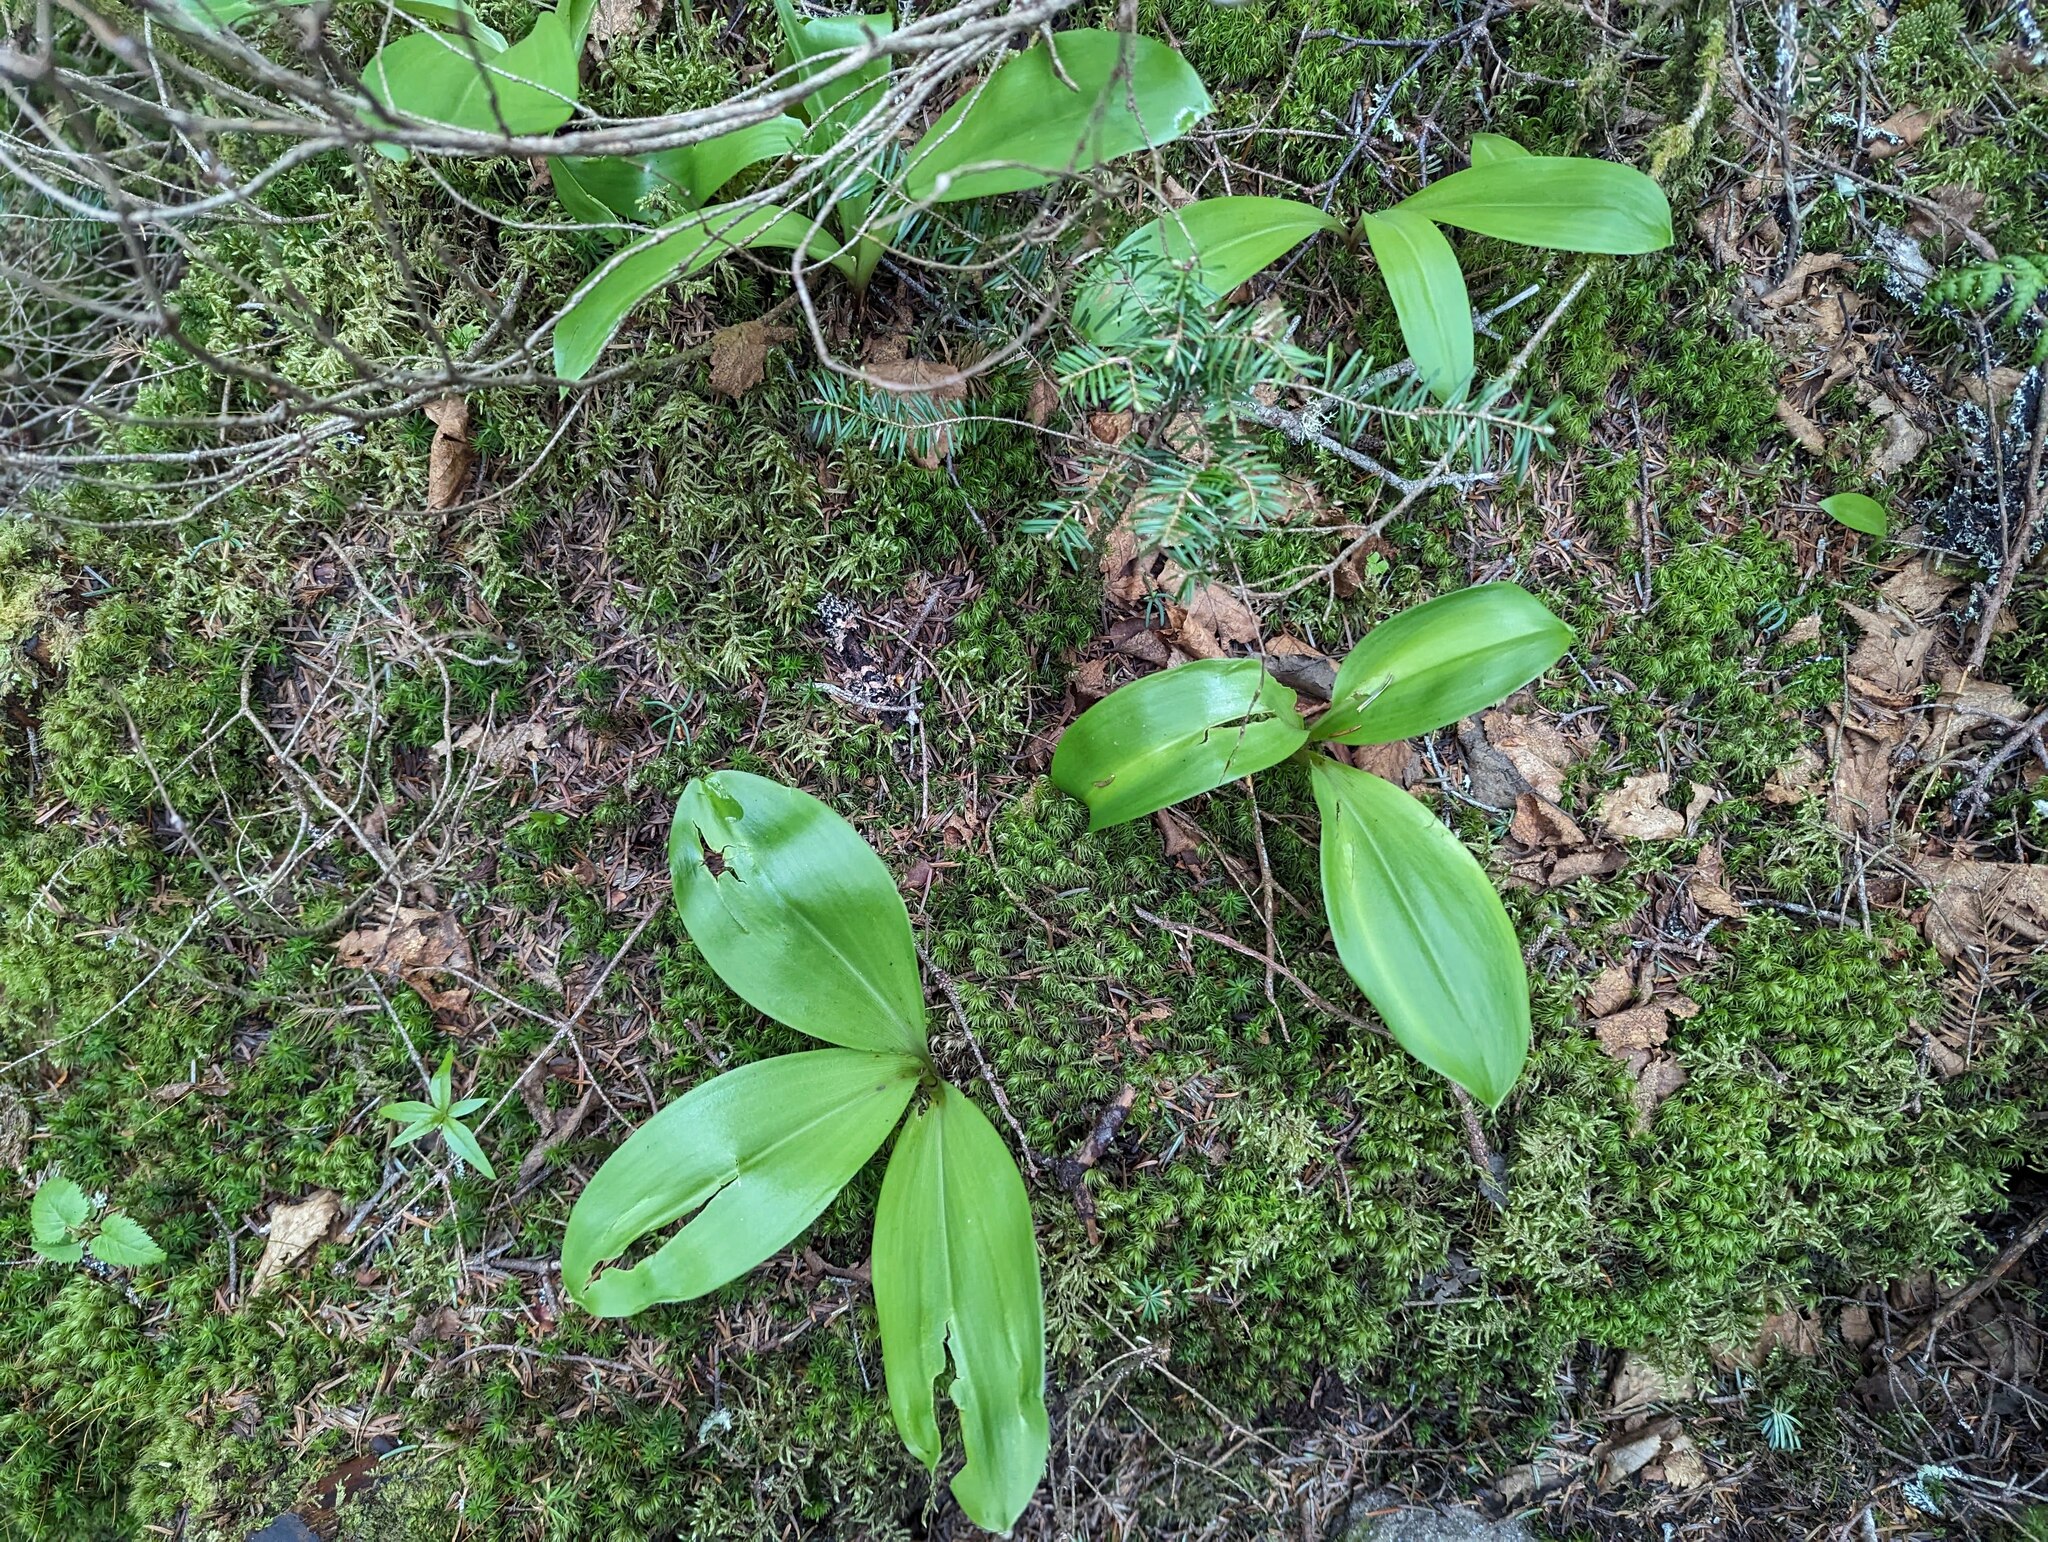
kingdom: Plantae
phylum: Tracheophyta
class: Liliopsida
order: Liliales
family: Liliaceae
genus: Clintonia
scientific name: Clintonia borealis
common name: Yellow clintonia
